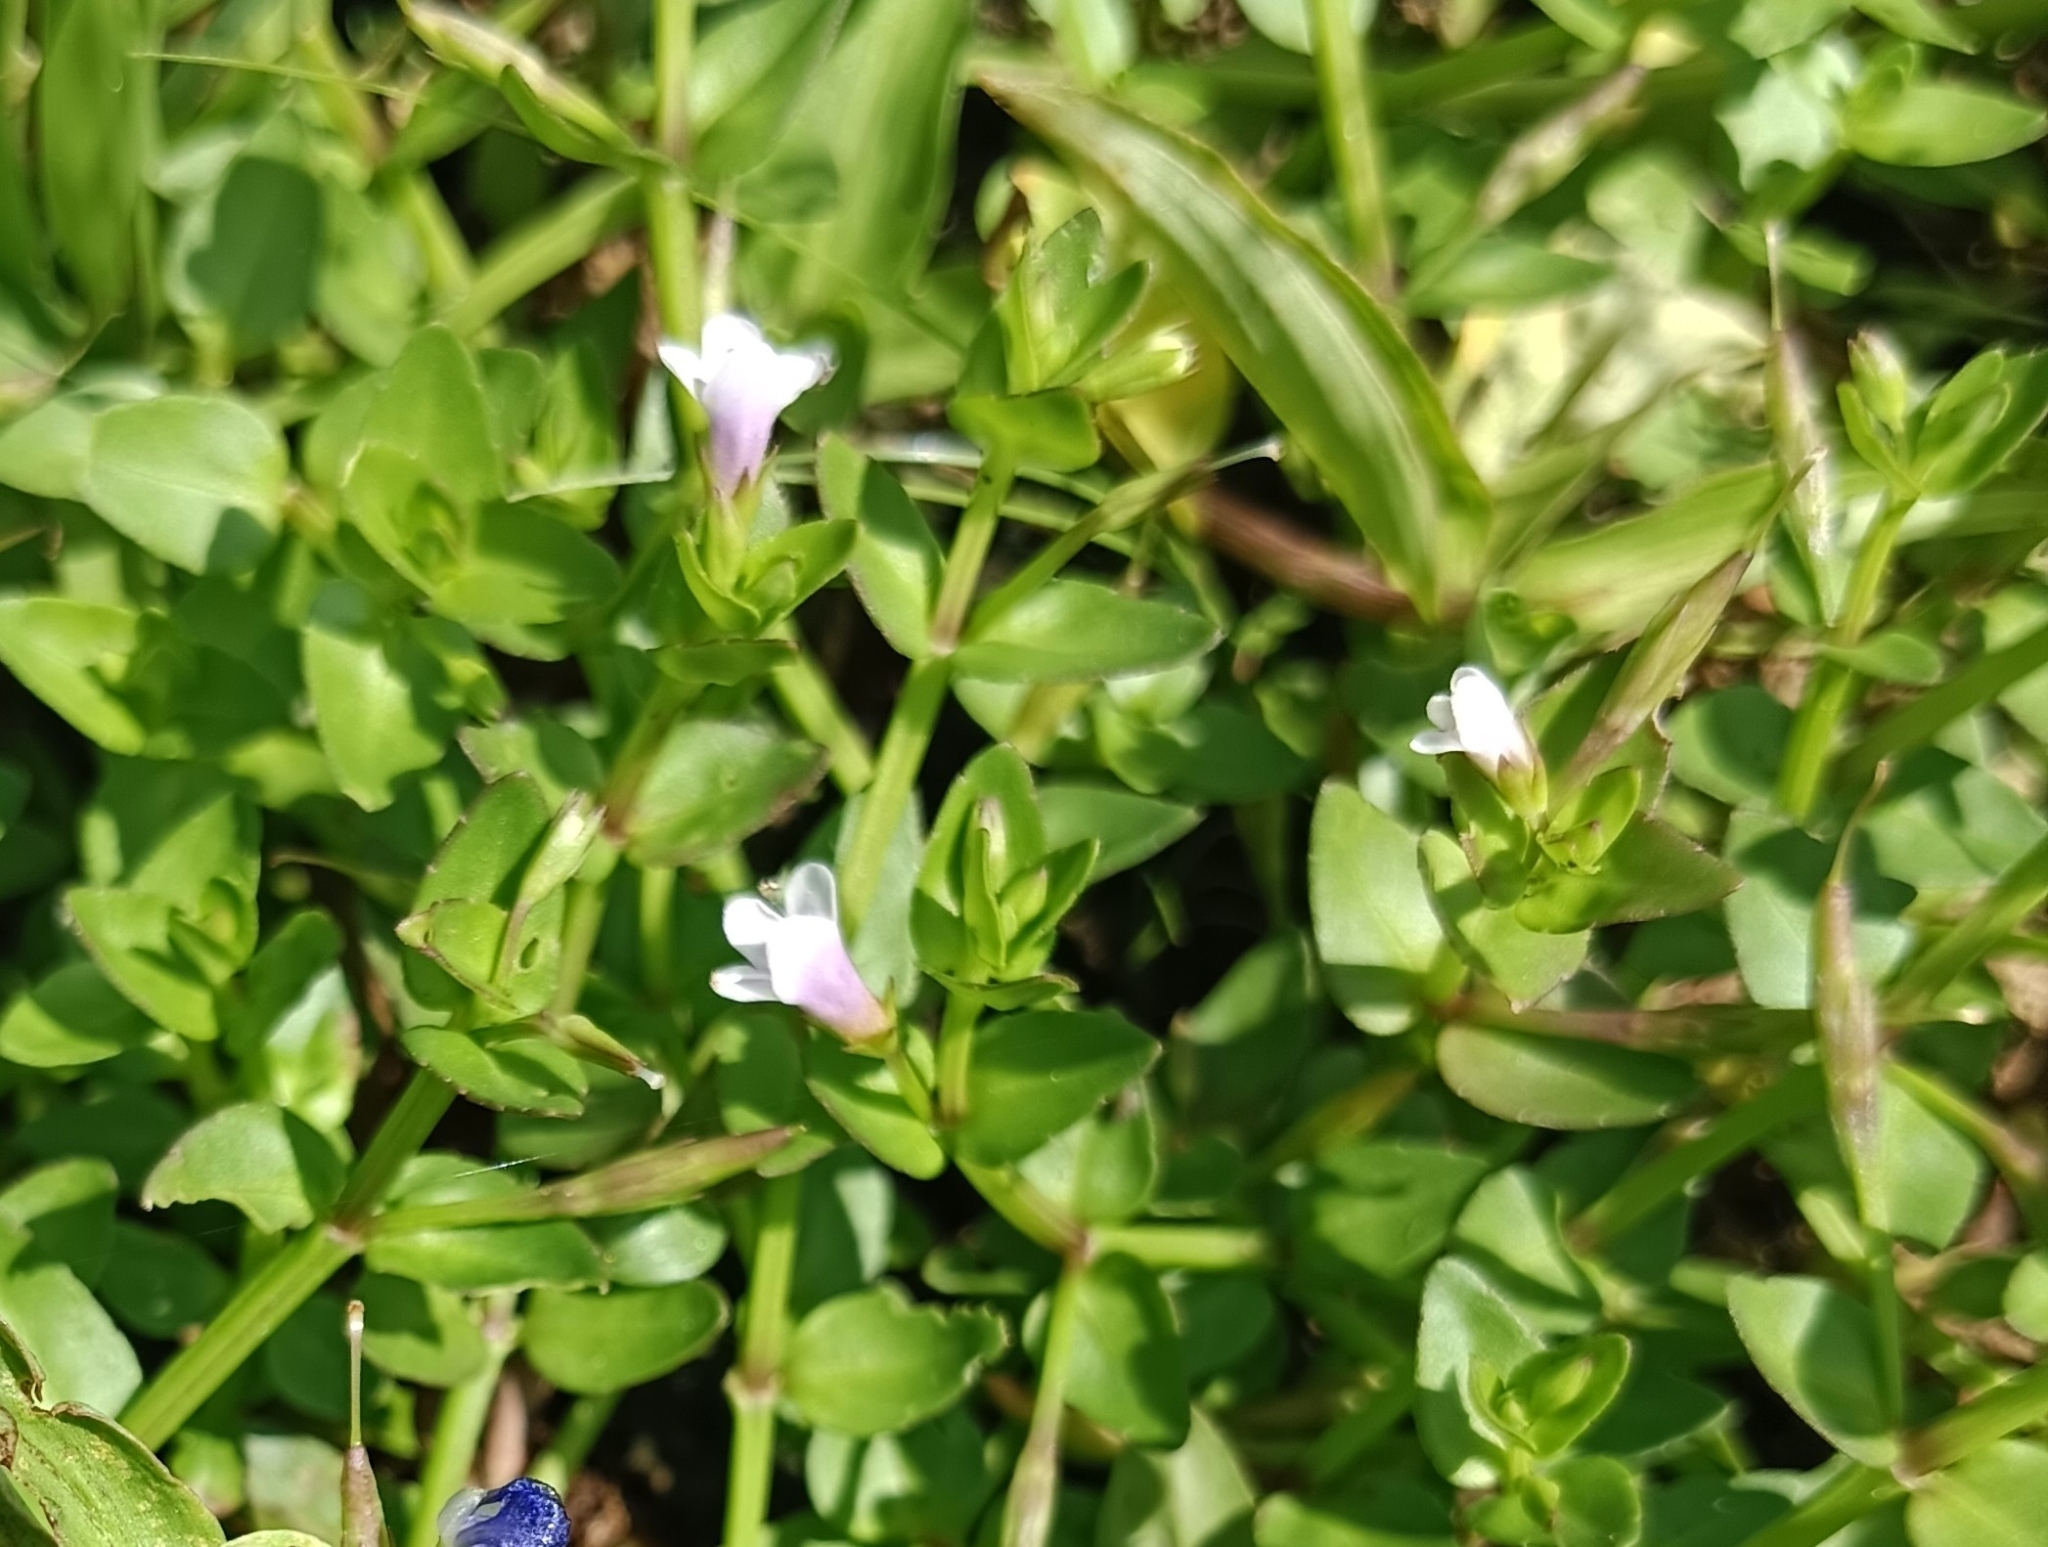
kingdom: Plantae
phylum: Tracheophyta
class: Magnoliopsida
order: Lamiales
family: Linderniaceae
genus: Torenia
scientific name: Torenia anagallis
